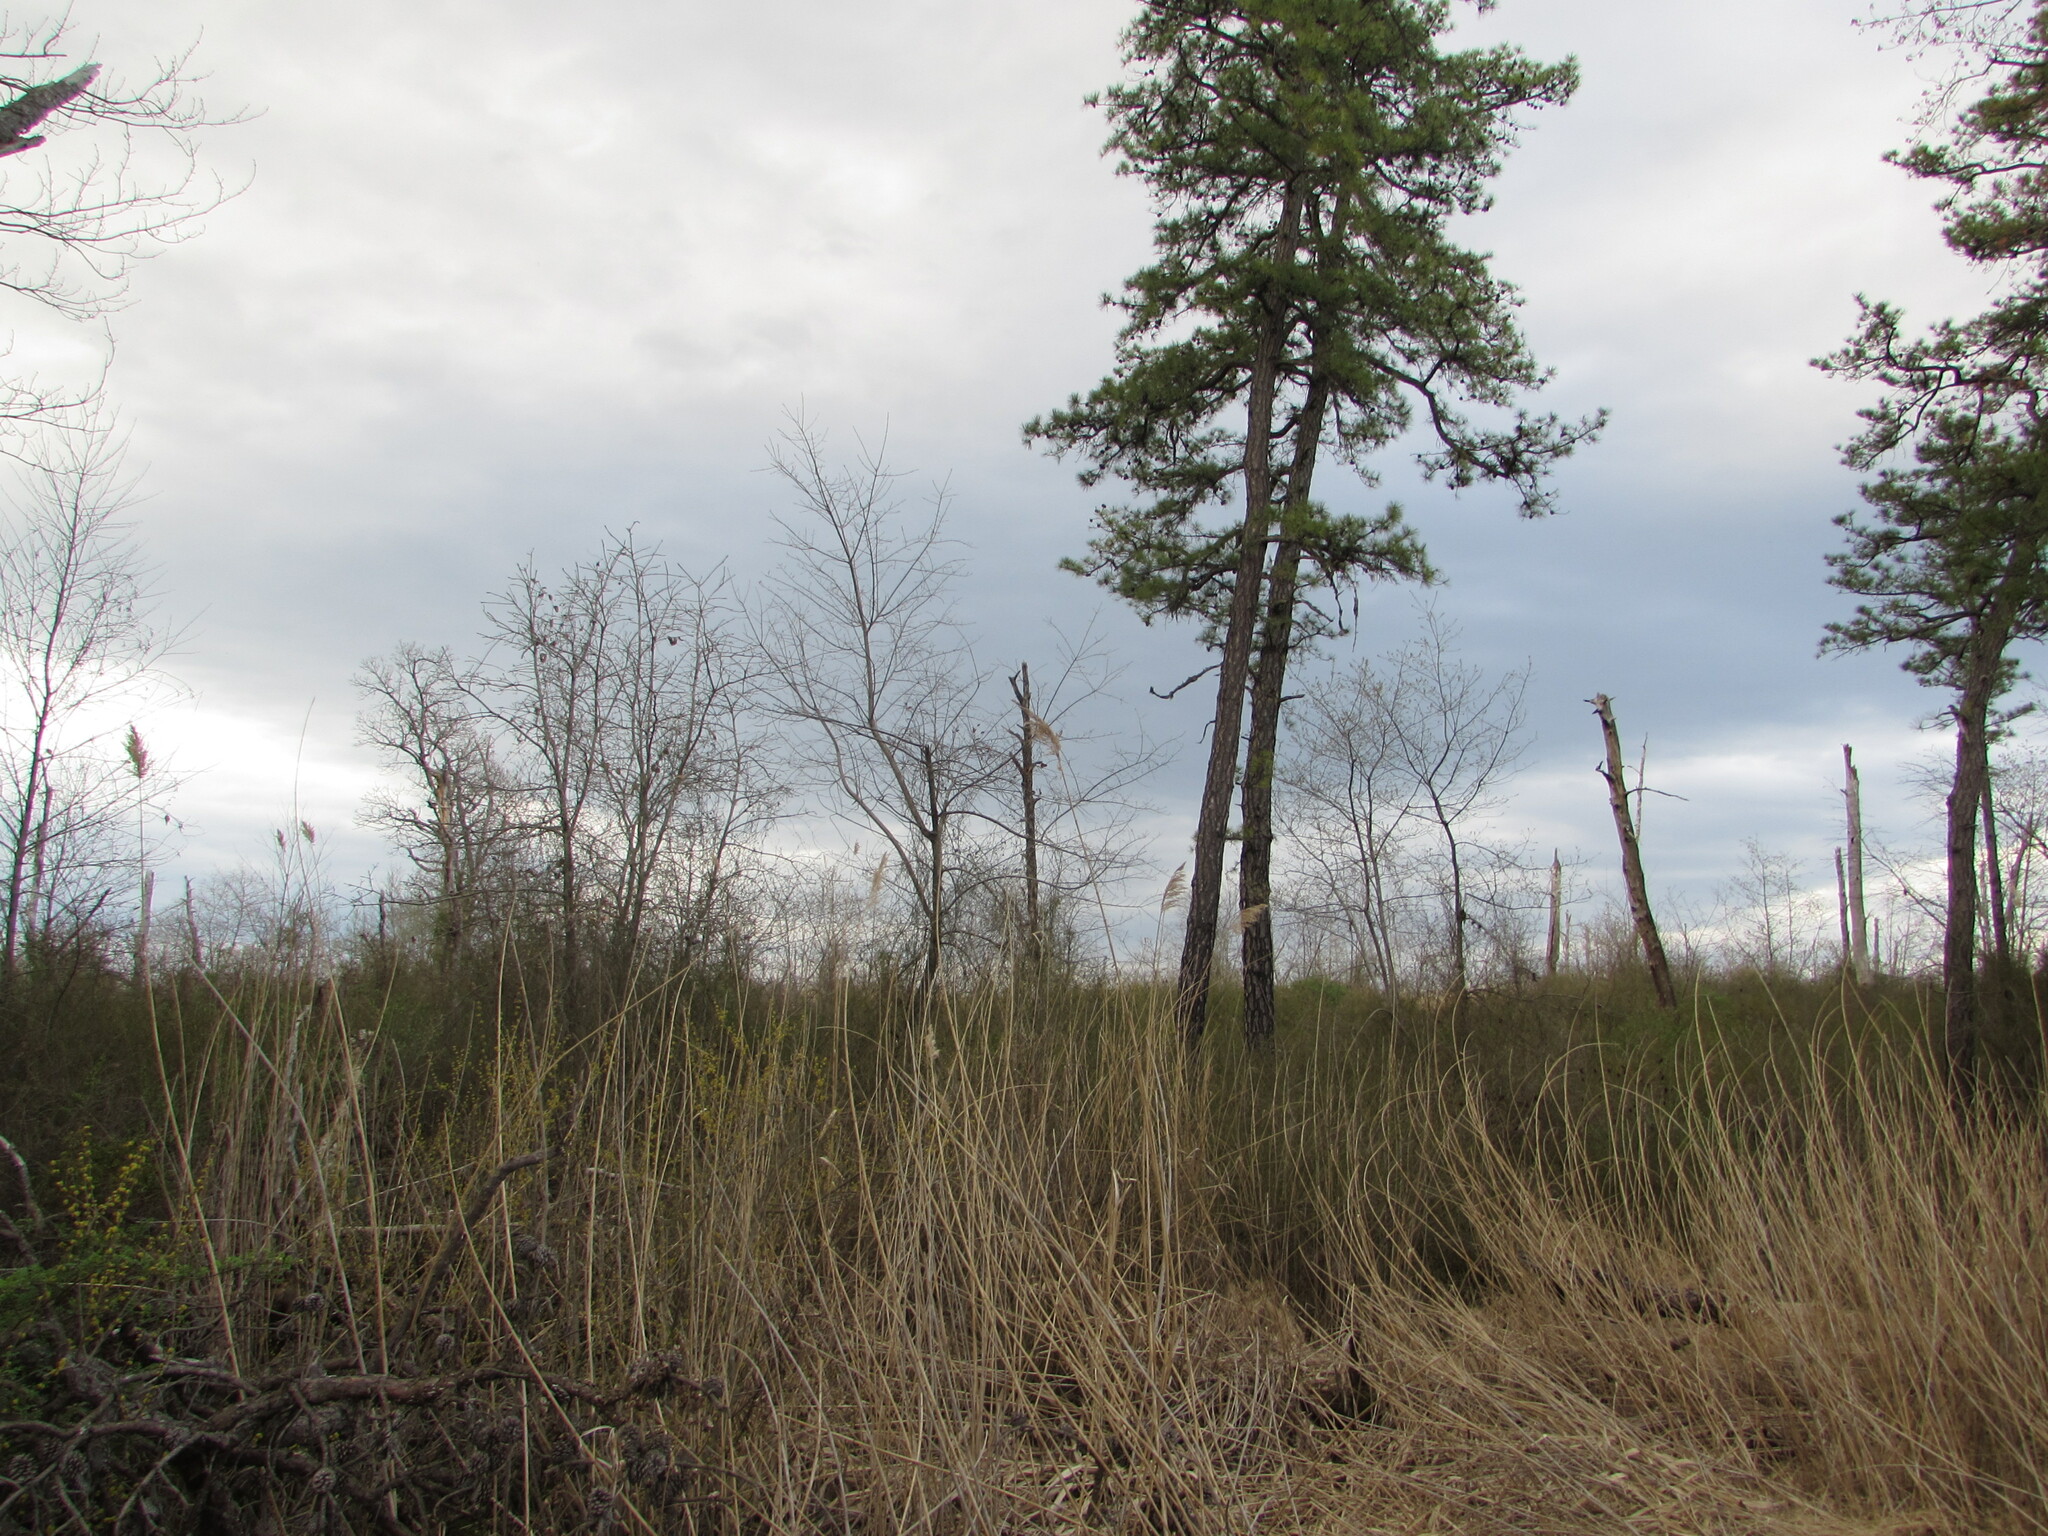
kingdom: Plantae
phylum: Tracheophyta
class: Liliopsida
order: Poales
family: Poaceae
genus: Phragmites
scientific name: Phragmites australis
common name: Common reed
